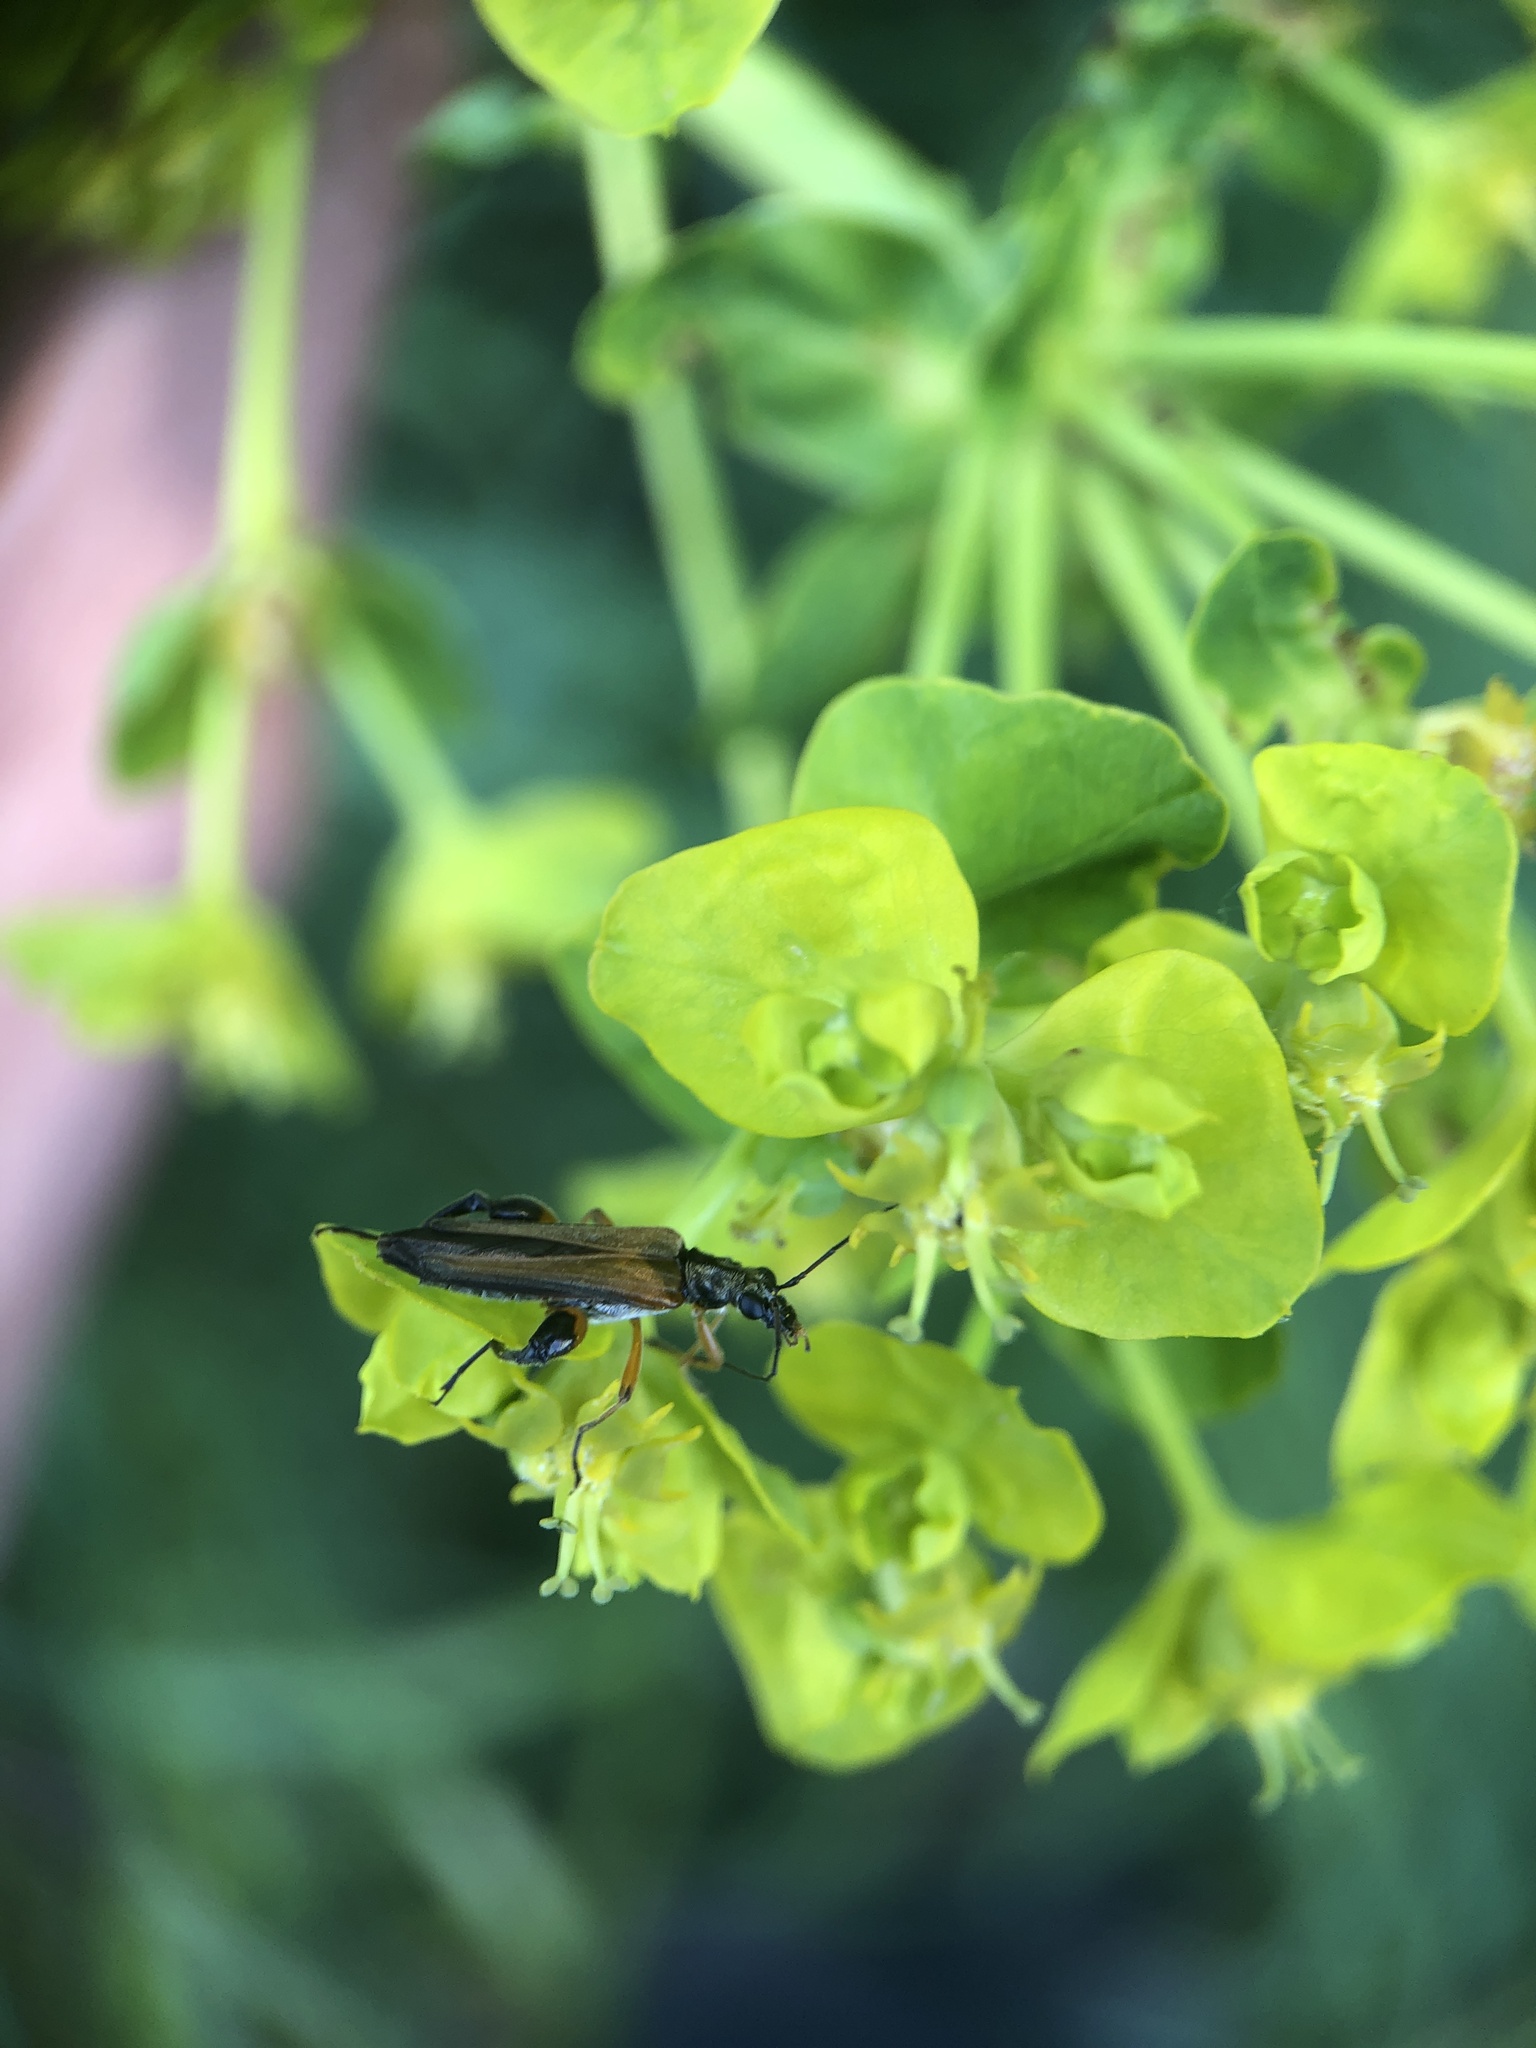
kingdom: Animalia
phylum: Arthropoda
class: Insecta
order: Coleoptera
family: Oedemeridae
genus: Oedemera
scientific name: Oedemera podagrariae
